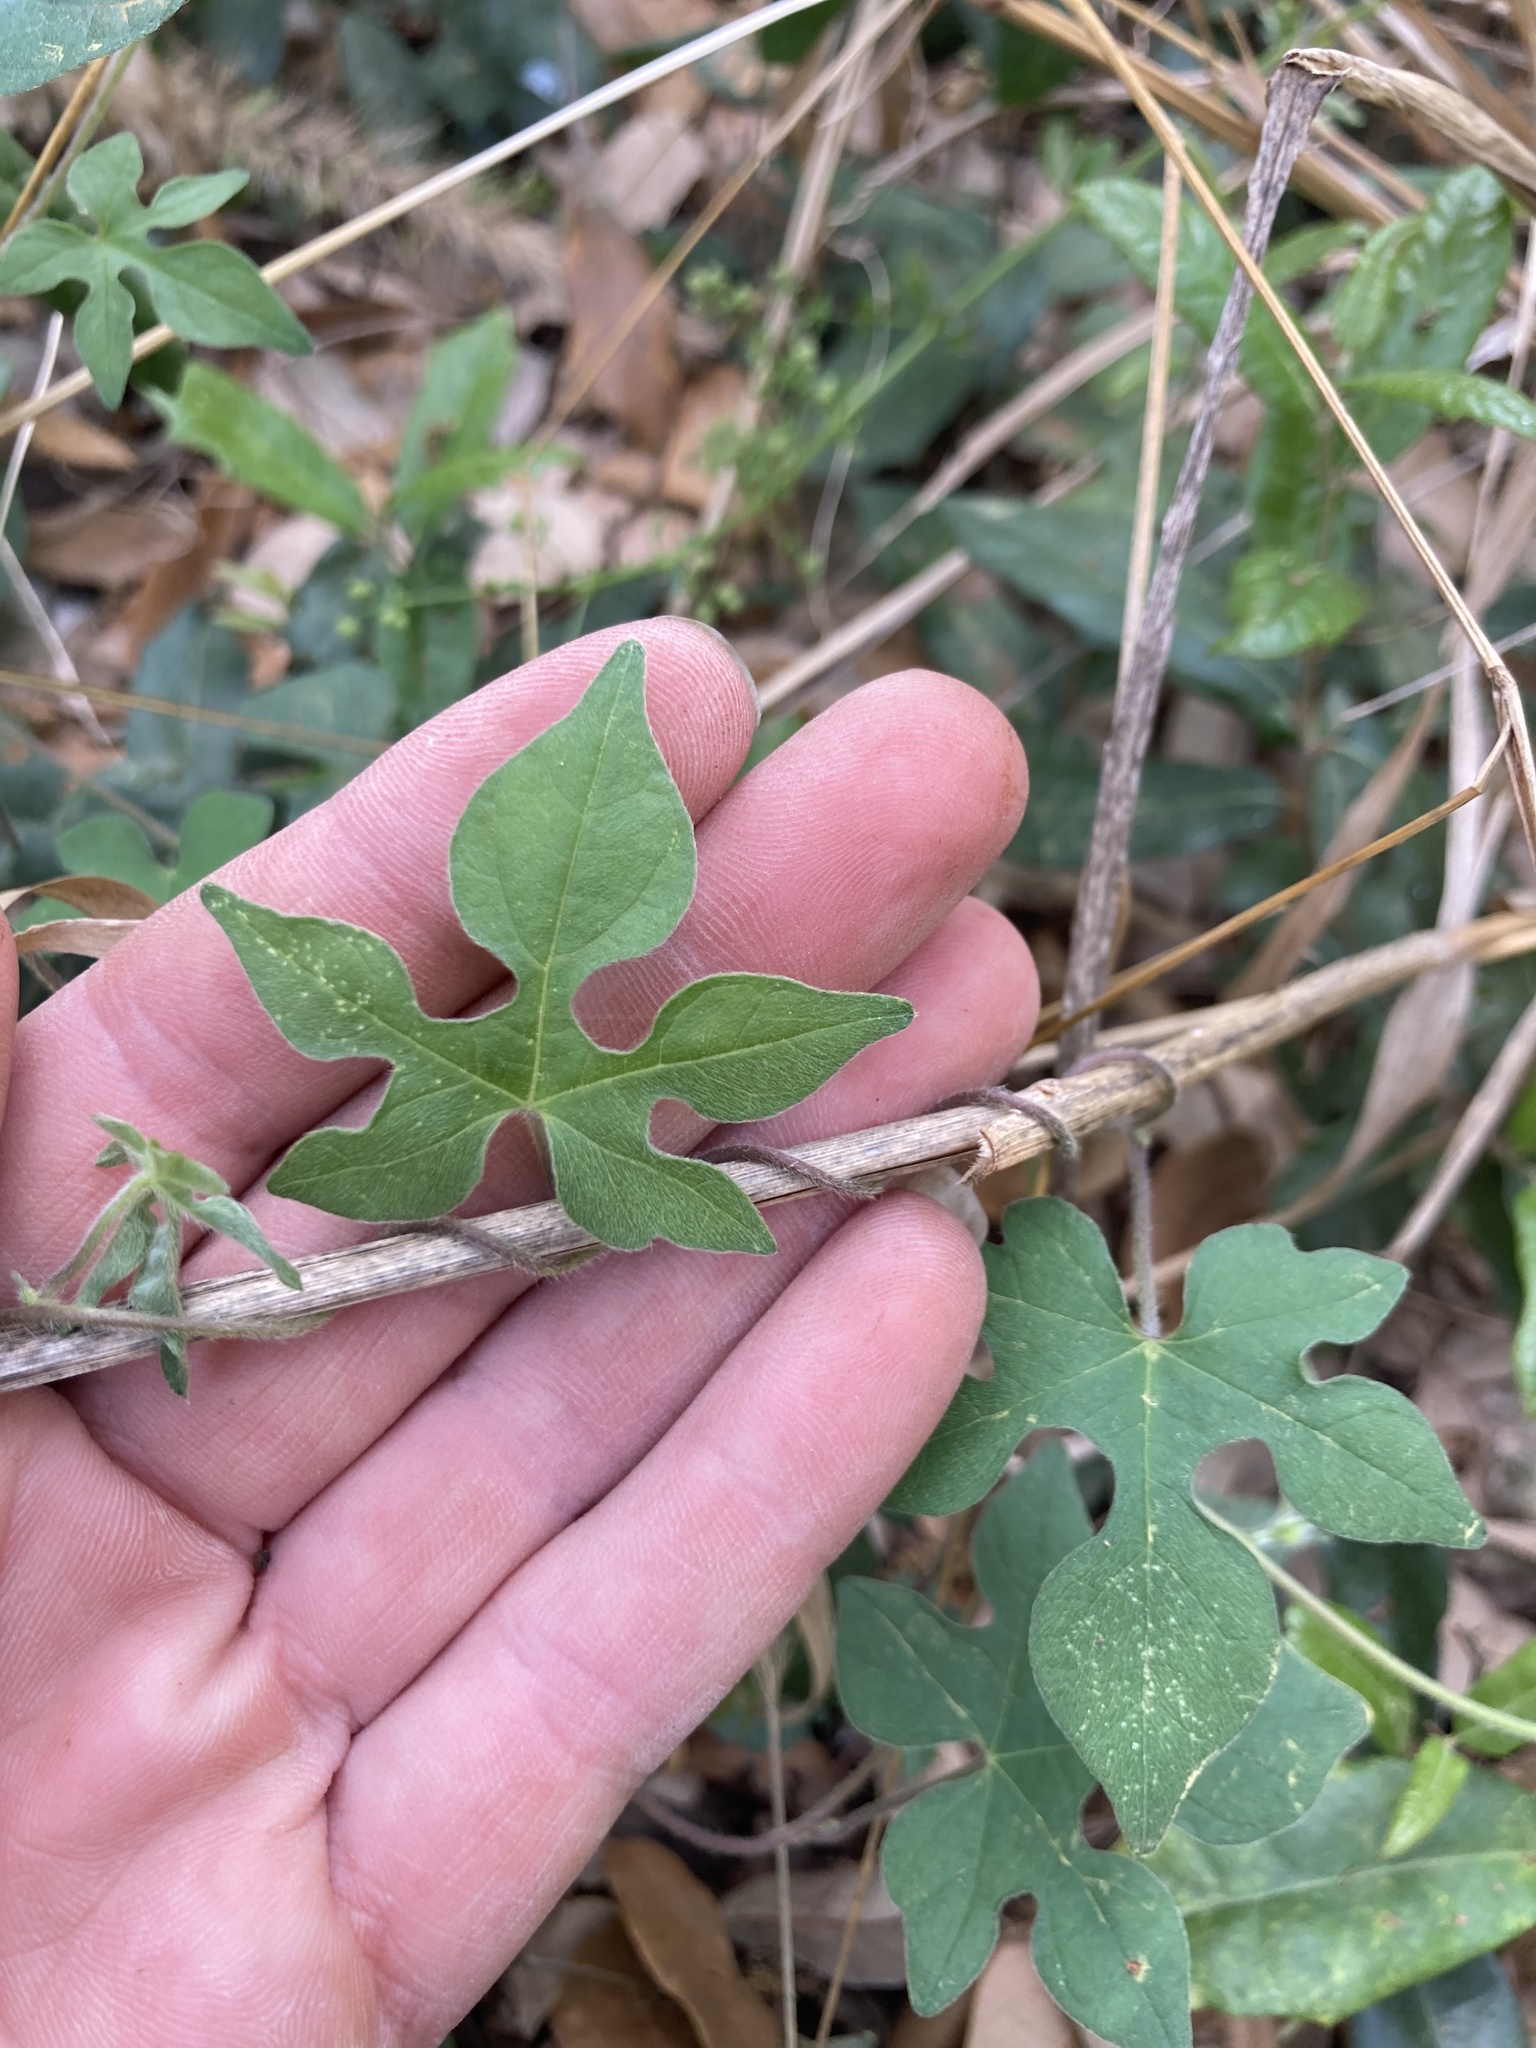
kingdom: Plantae
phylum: Tracheophyta
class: Magnoliopsida
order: Solanales
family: Convolvulaceae
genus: Ipomoea
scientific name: Ipomoea lindheimeri
